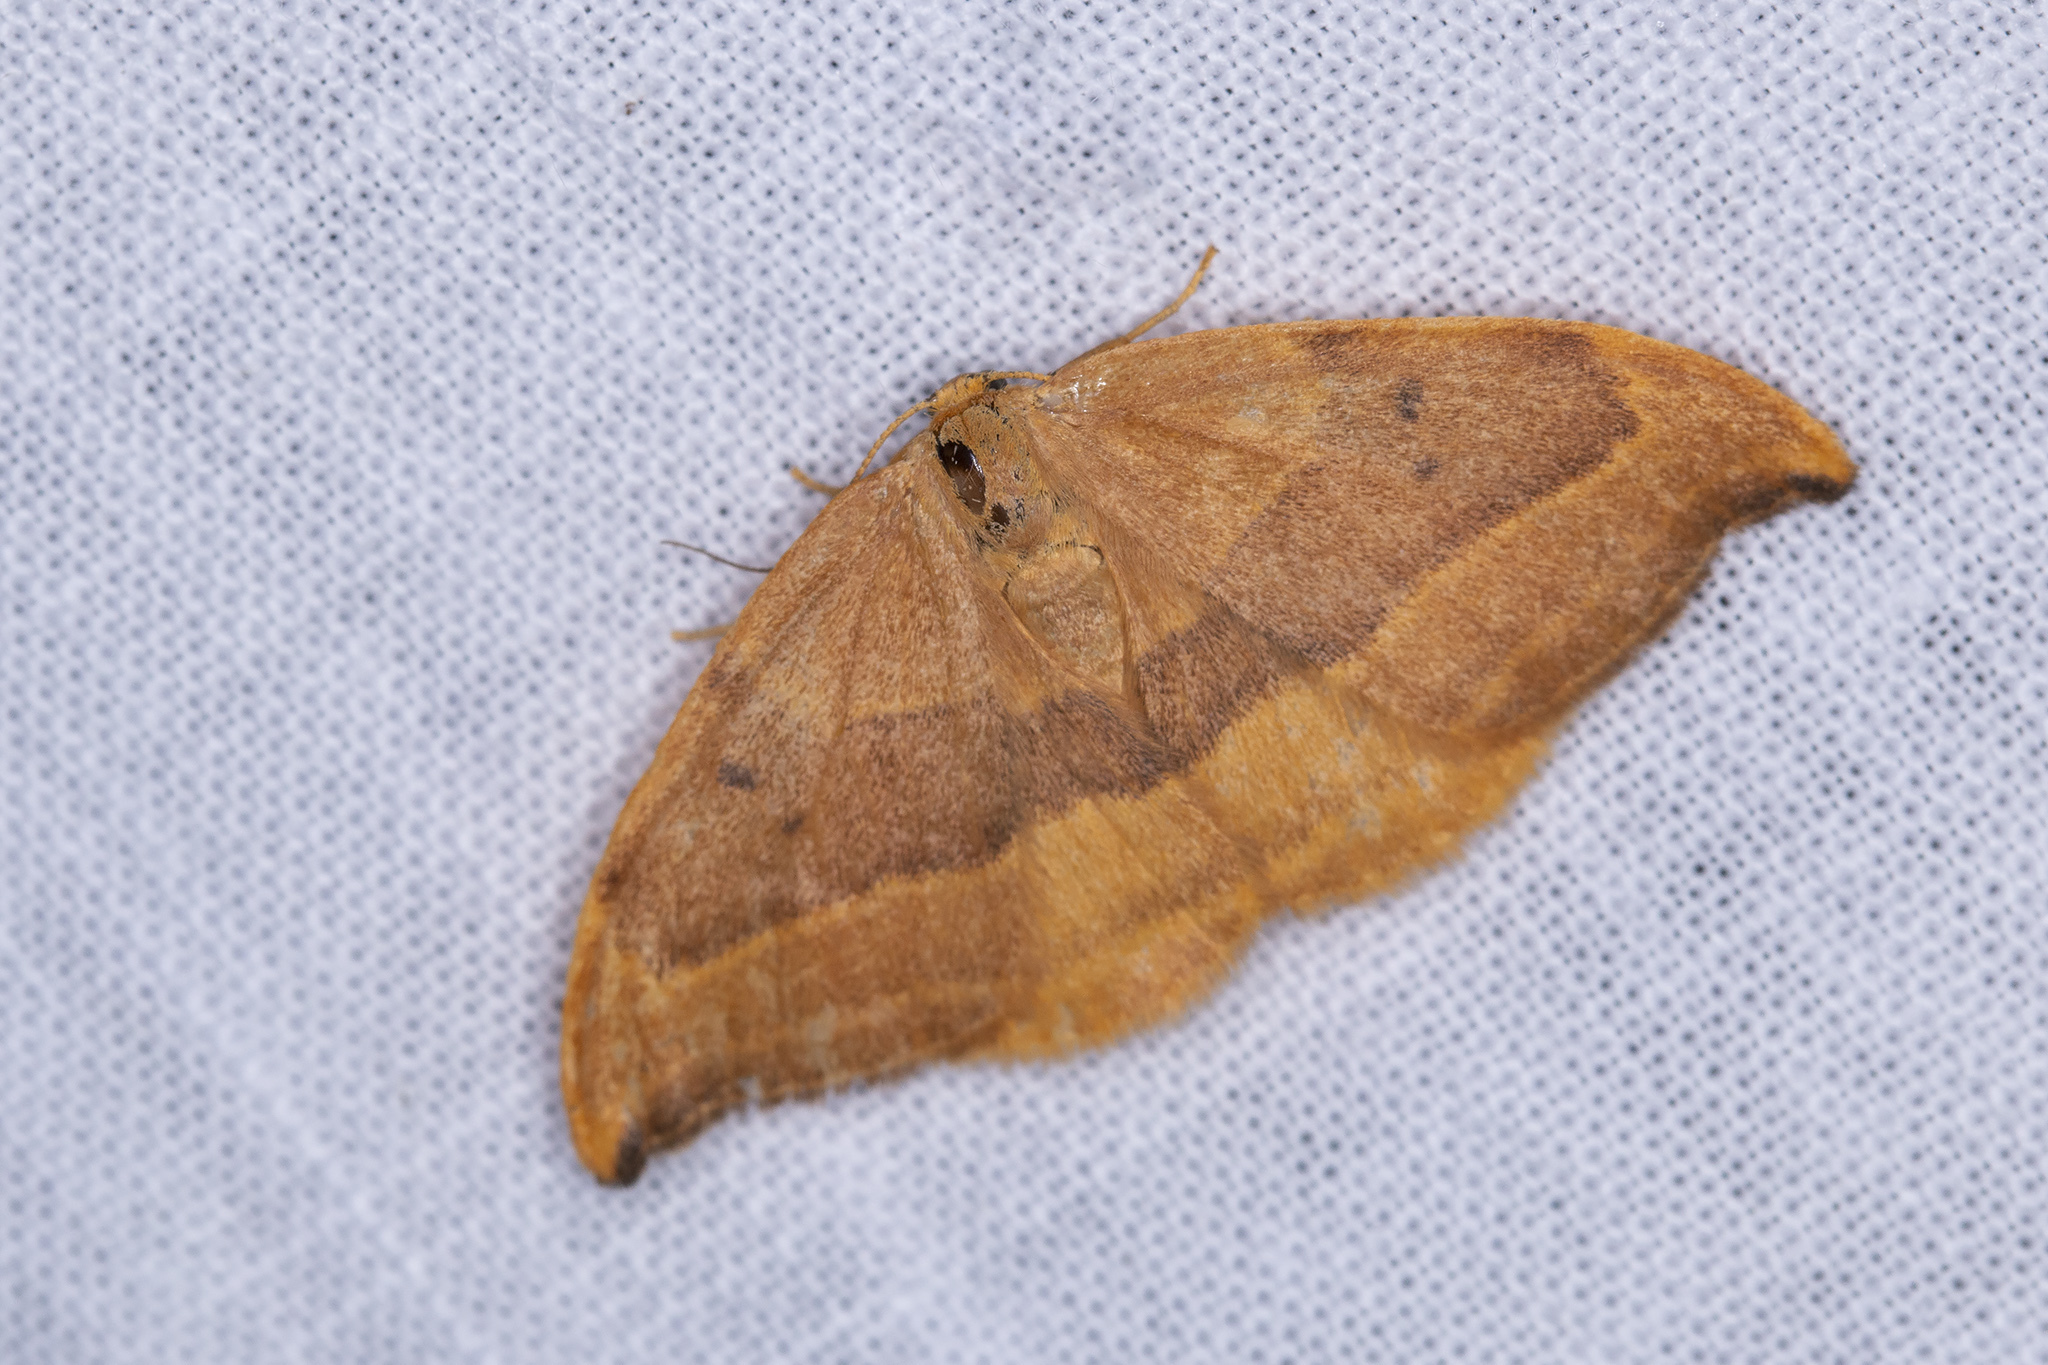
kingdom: Animalia
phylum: Arthropoda
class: Insecta
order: Lepidoptera
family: Drepanidae
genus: Watsonalla
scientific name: Watsonalla cultraria
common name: Barred hook-tip
